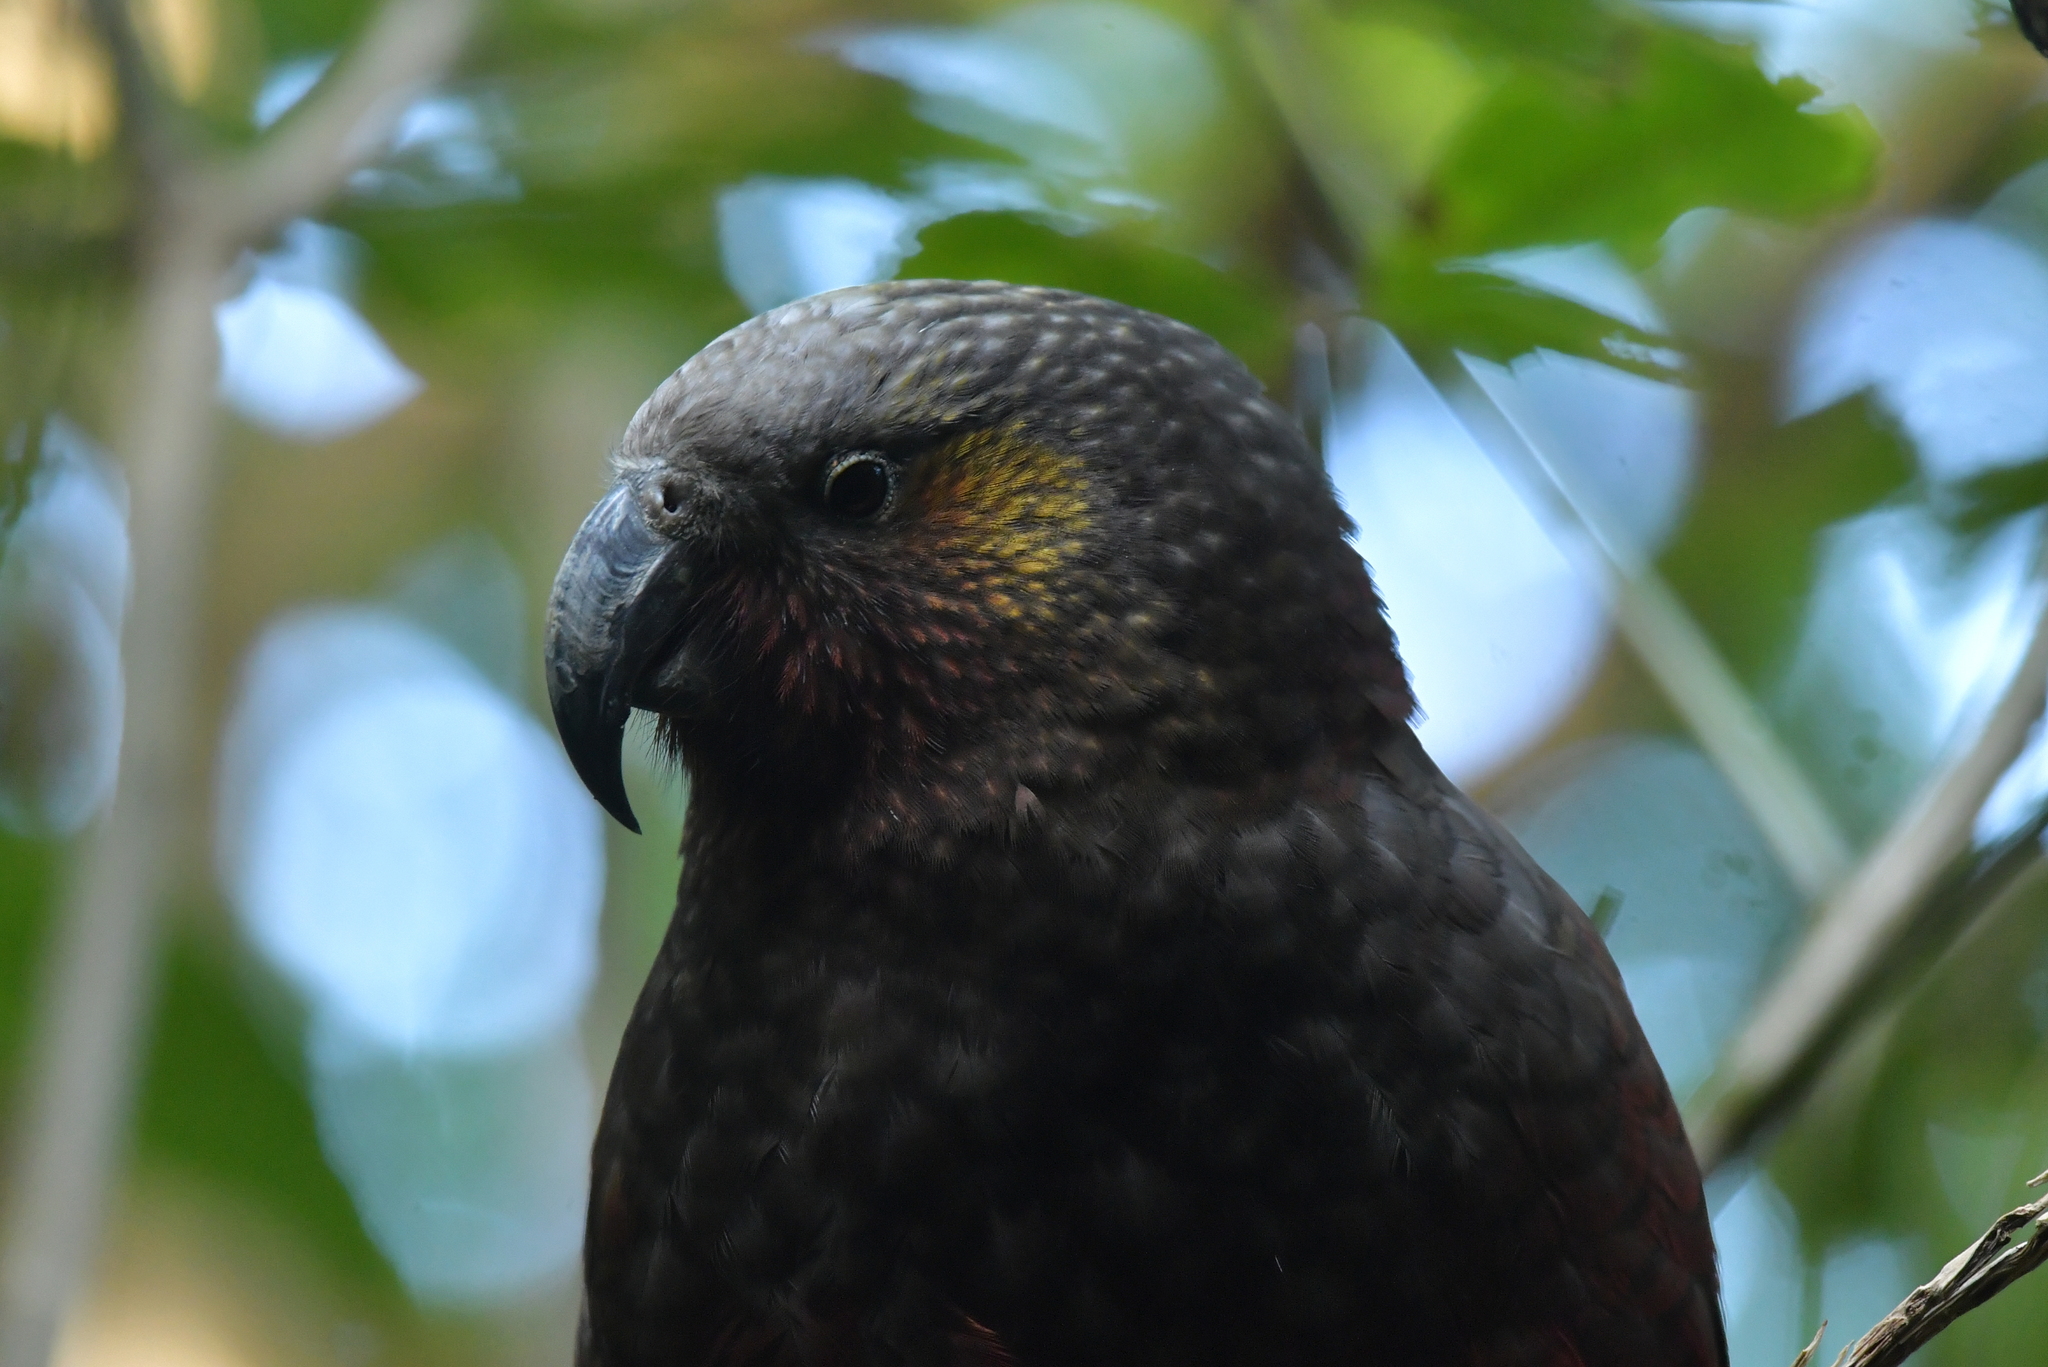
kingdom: Animalia
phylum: Chordata
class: Aves
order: Psittaciformes
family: Psittacidae
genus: Nestor
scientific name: Nestor meridionalis
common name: New zealand kaka
